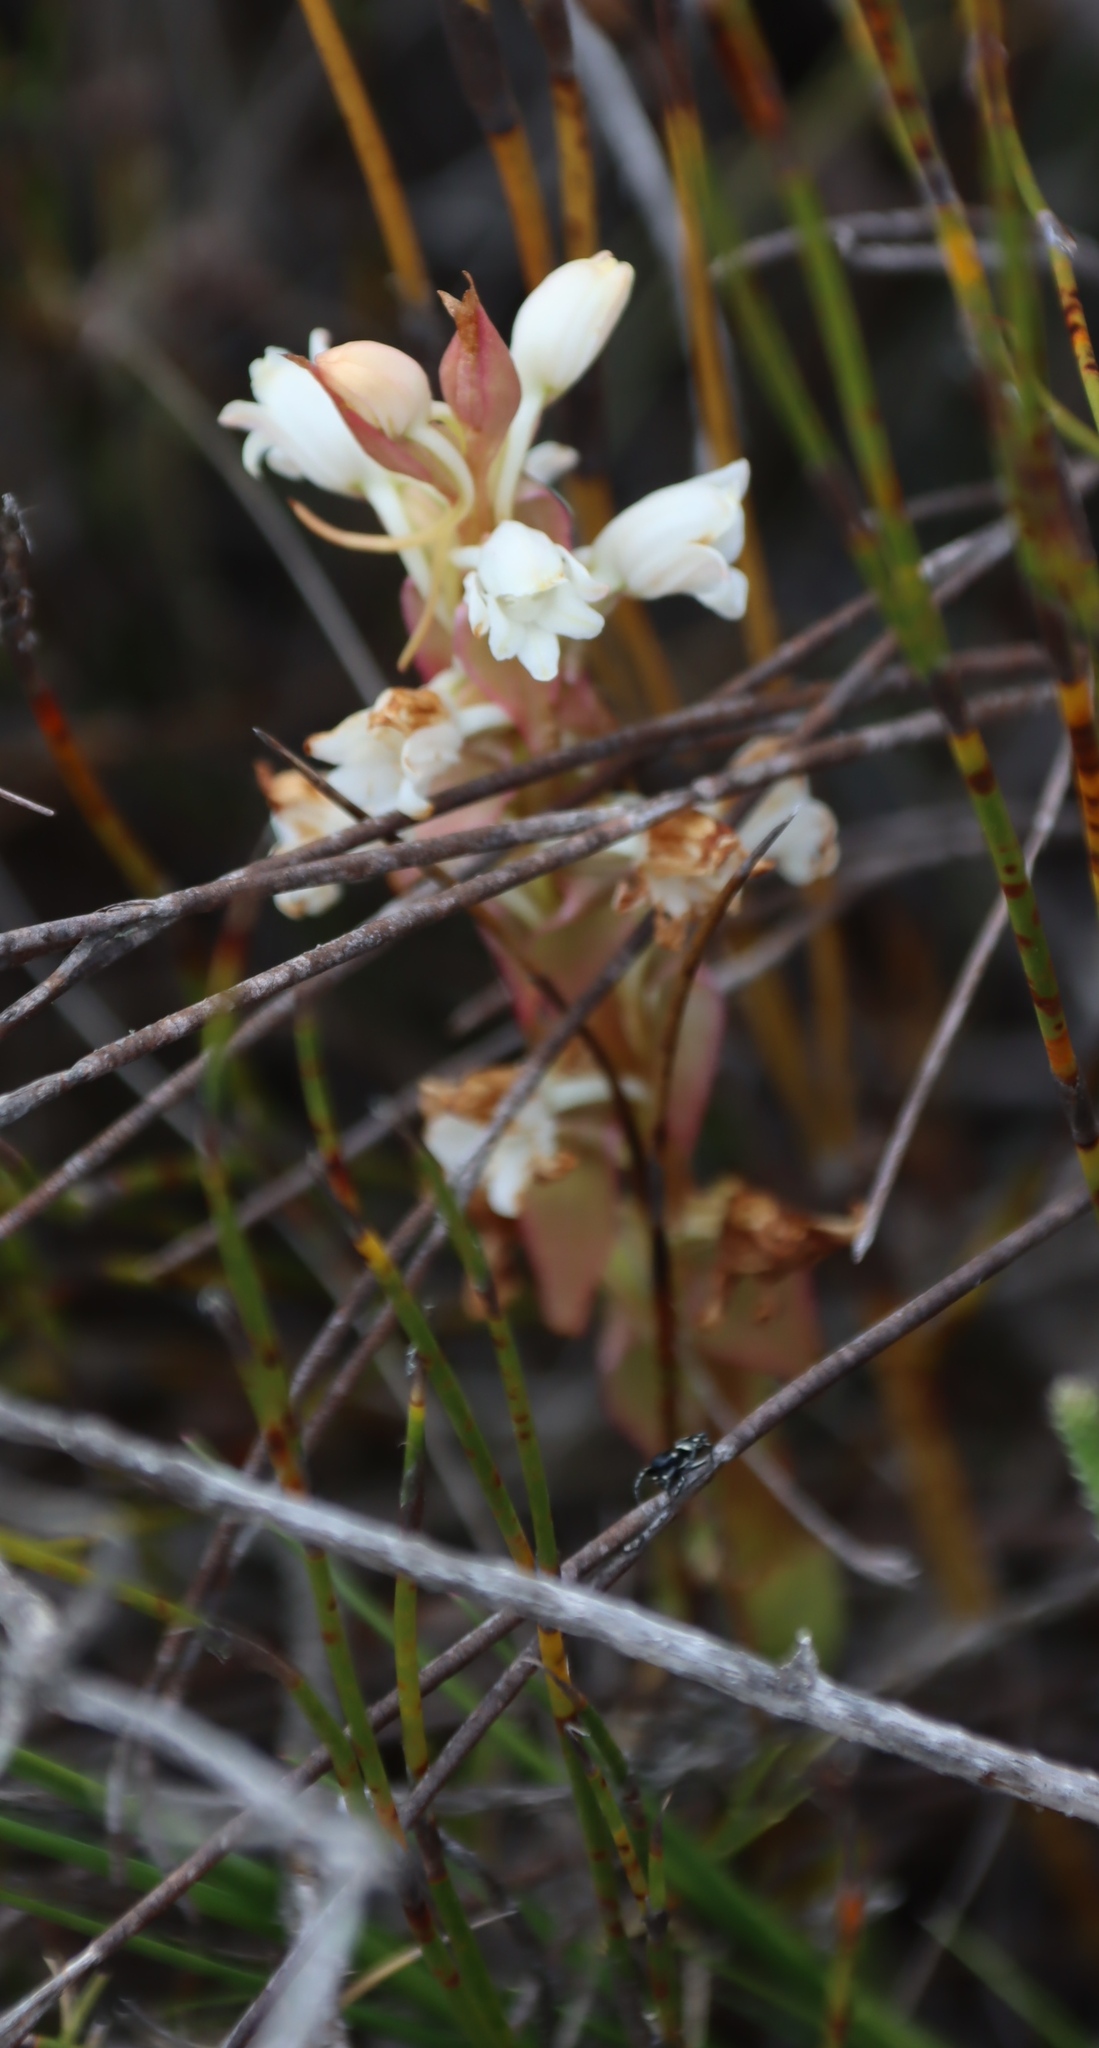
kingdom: Plantae
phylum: Tracheophyta
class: Liliopsida
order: Asparagales
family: Orchidaceae
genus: Satyrium
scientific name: Satyrium acuminatum
